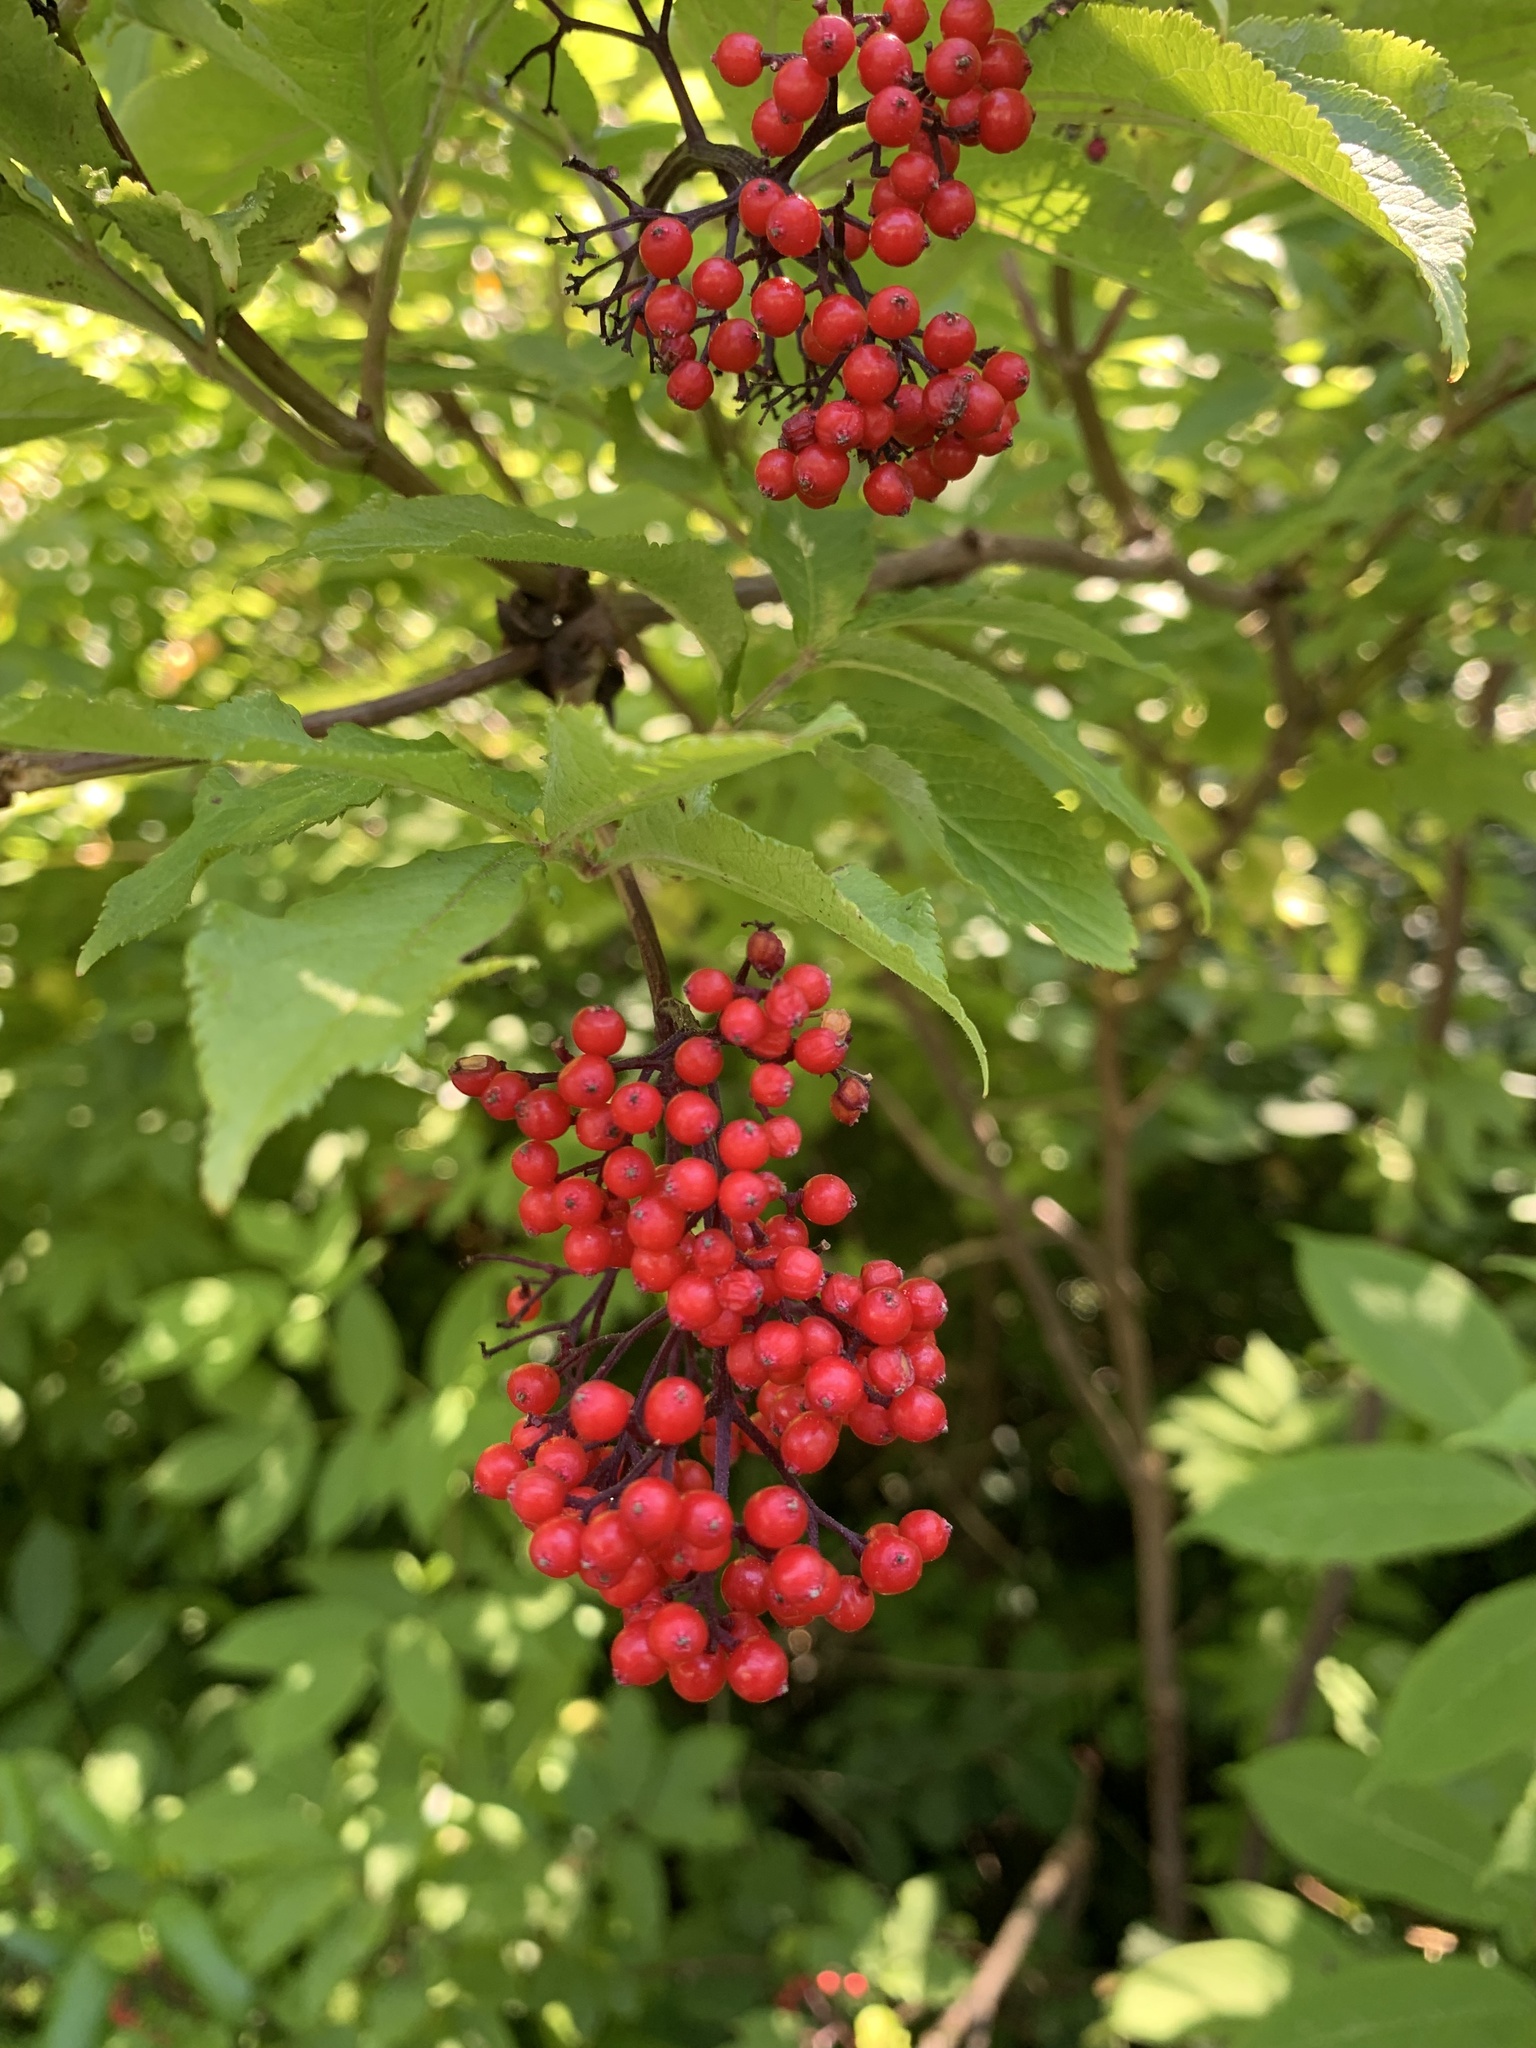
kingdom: Plantae
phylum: Tracheophyta
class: Magnoliopsida
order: Dipsacales
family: Viburnaceae
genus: Sambucus
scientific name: Sambucus racemosa
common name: Red-berried elder
